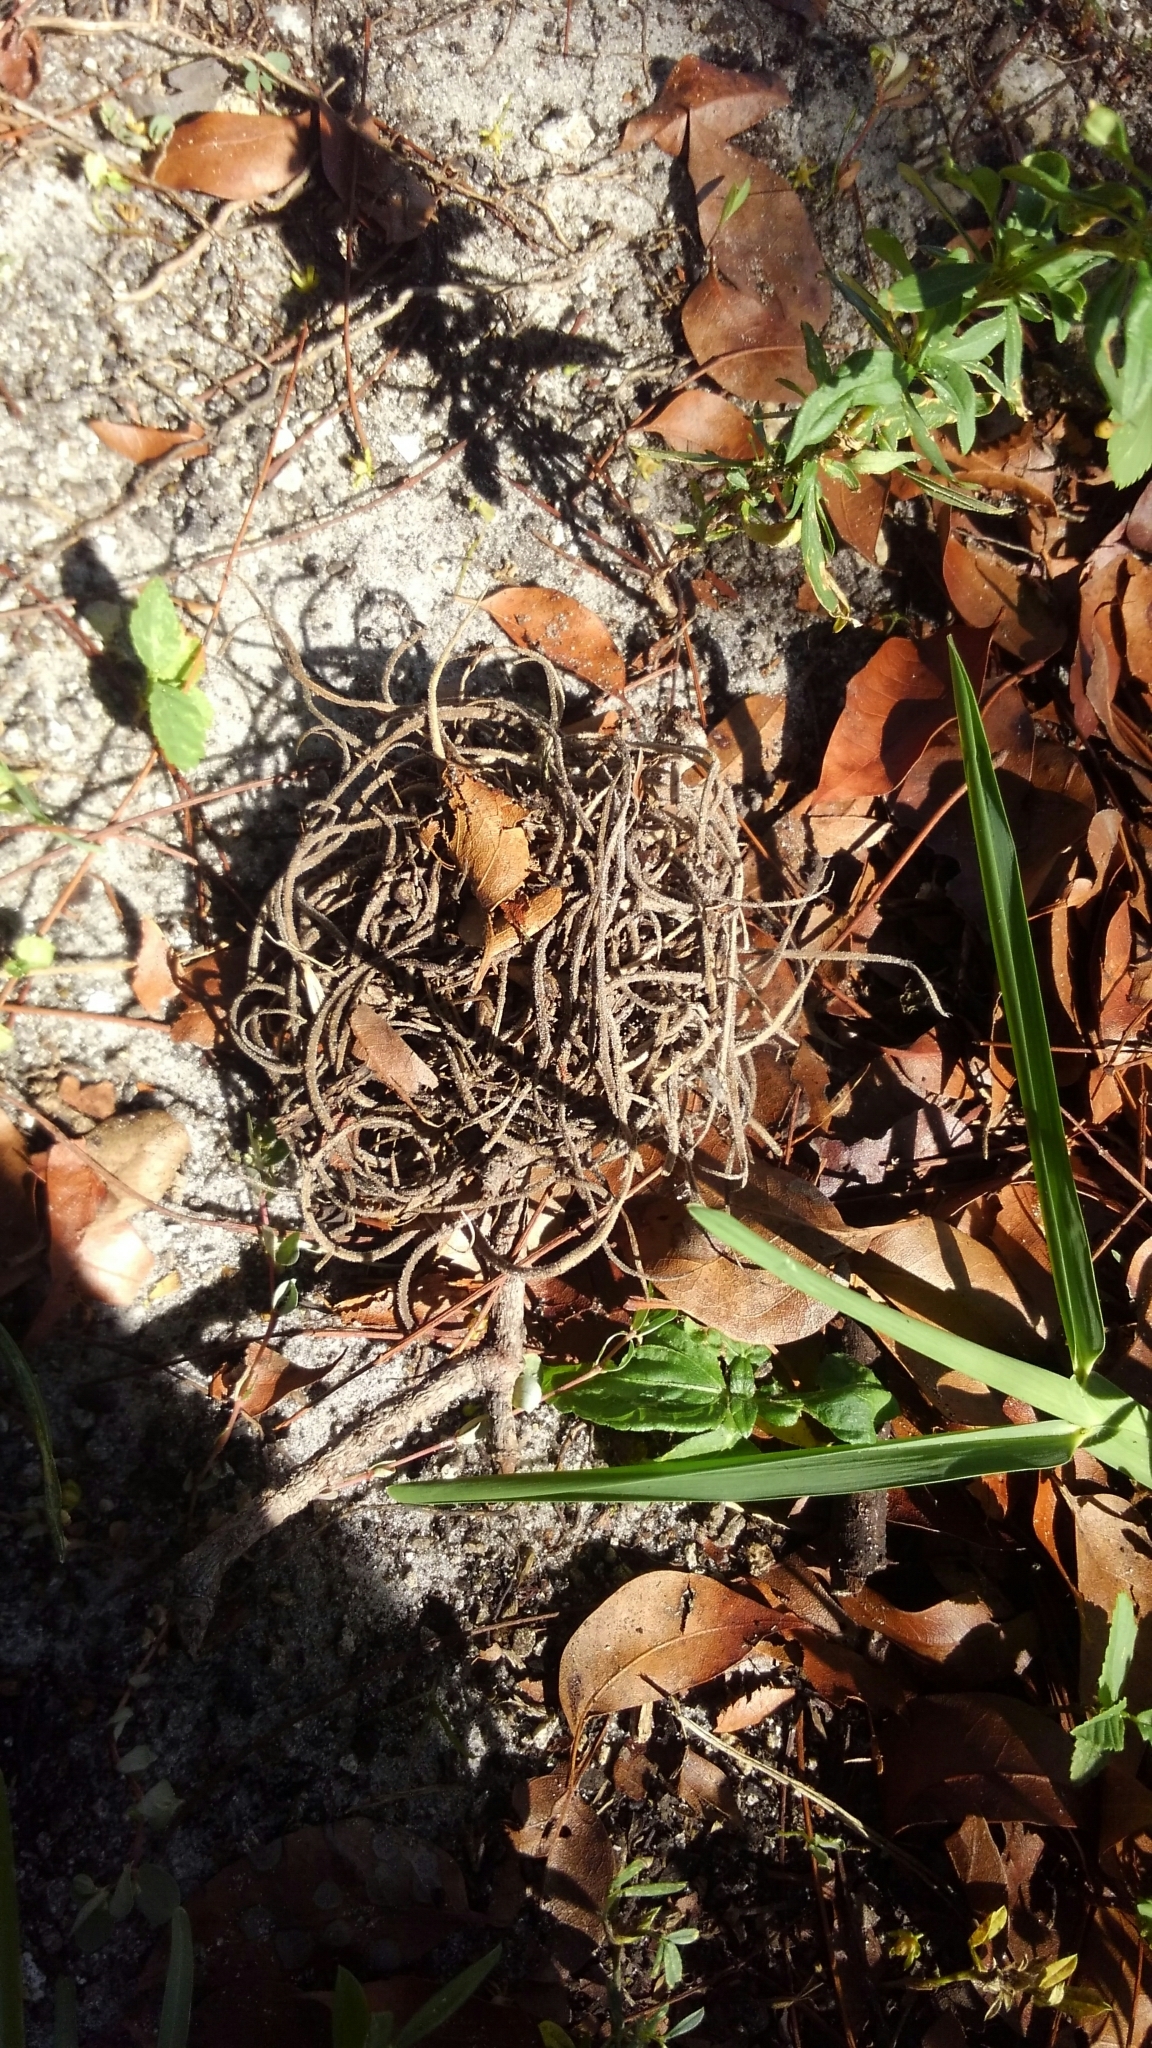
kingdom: Plantae
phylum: Tracheophyta
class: Liliopsida
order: Poales
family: Bromeliaceae
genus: Tillandsia
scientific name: Tillandsia recurvata
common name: Small ballmoss
